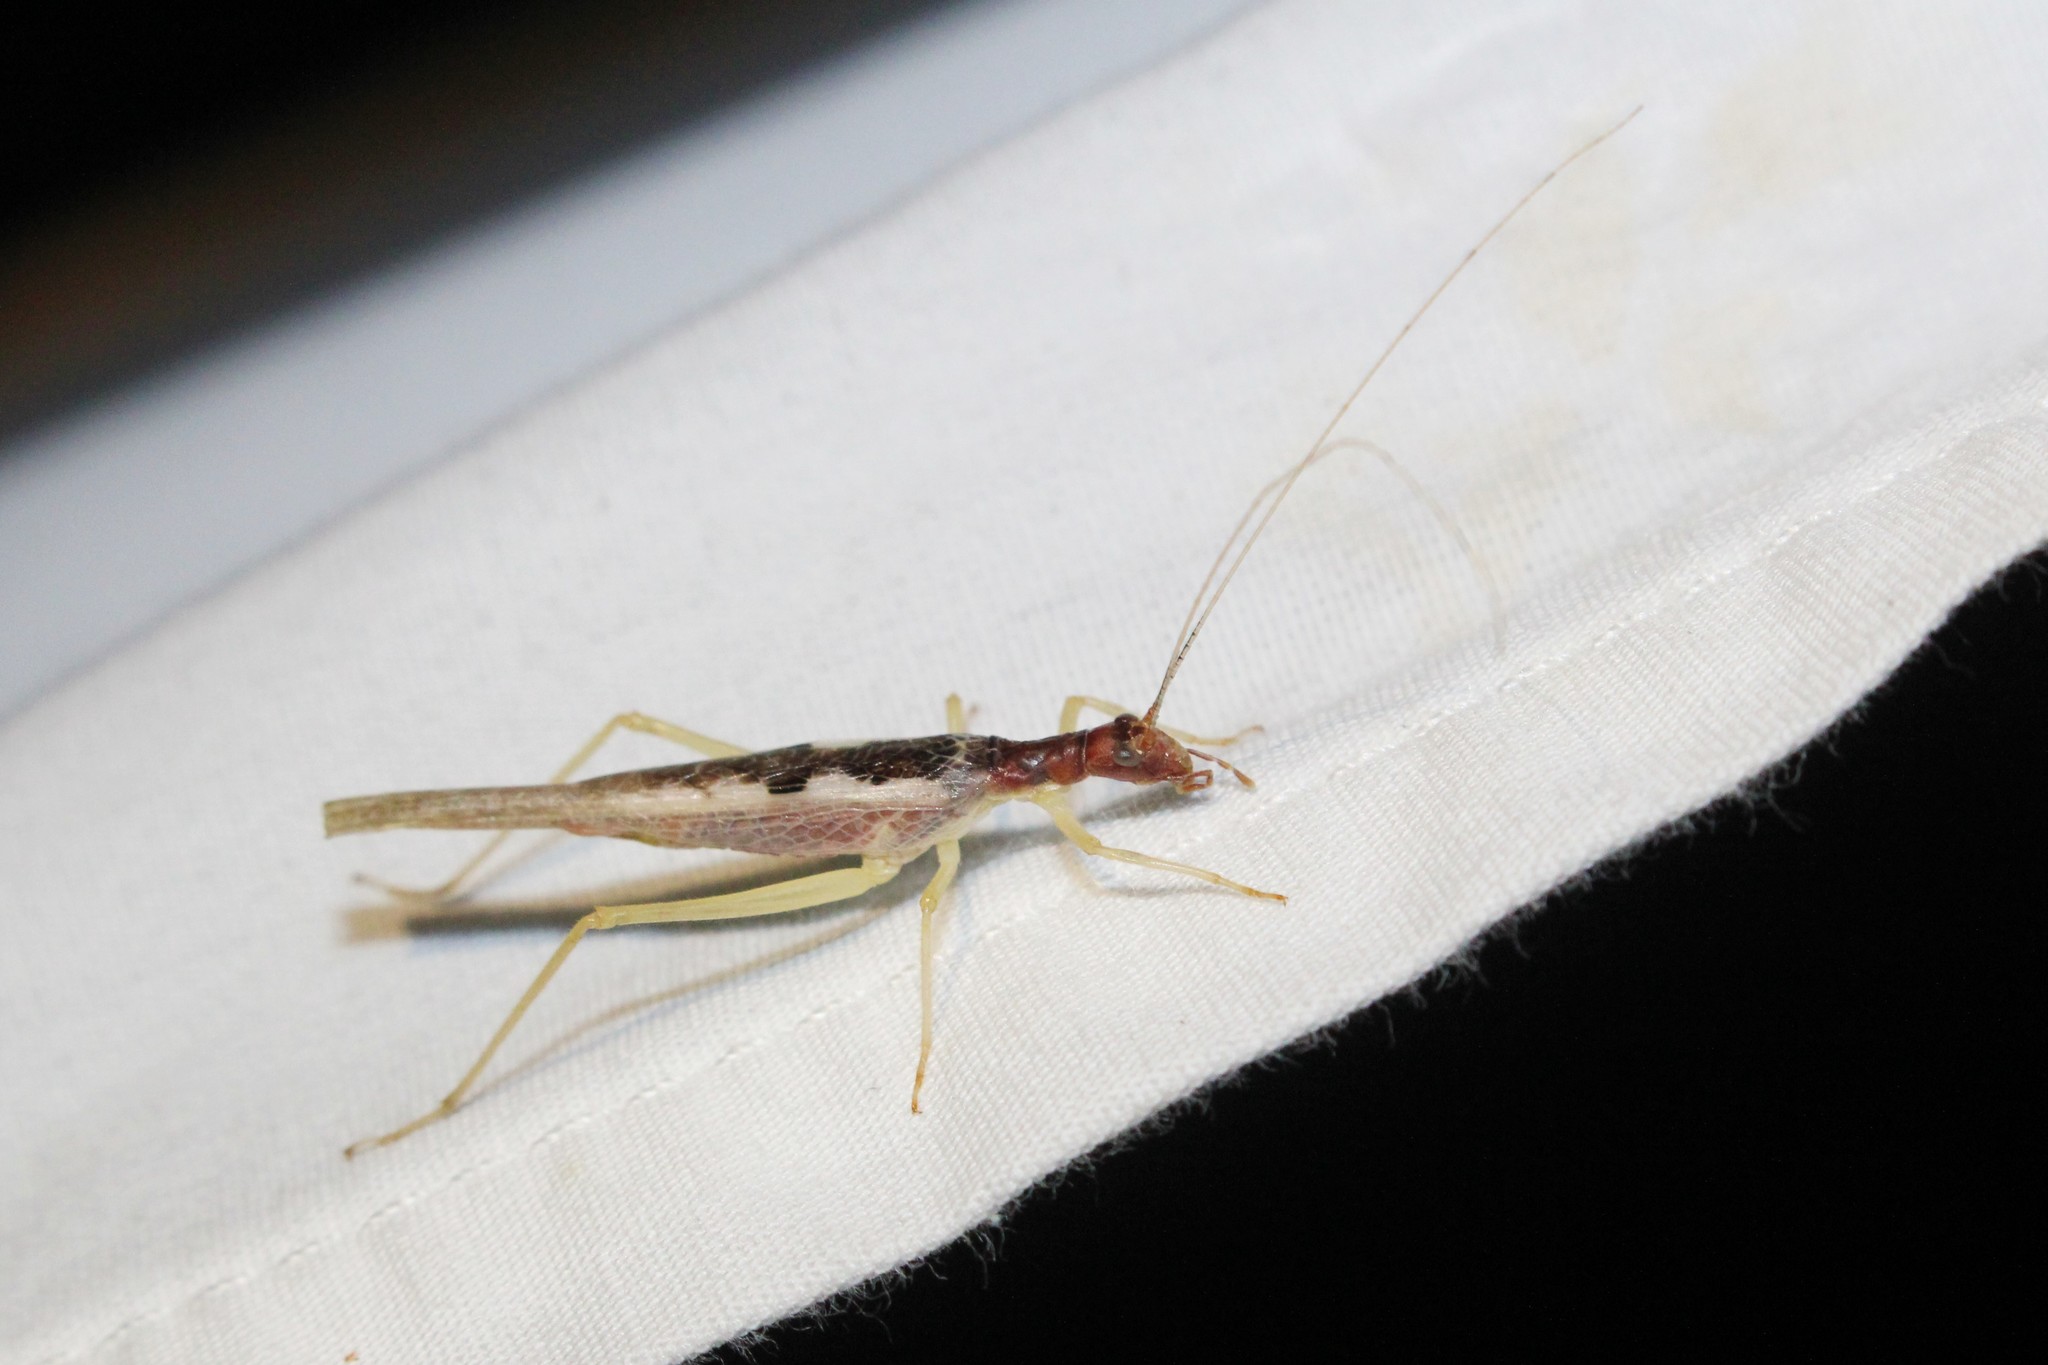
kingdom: Animalia
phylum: Arthropoda
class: Insecta
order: Orthoptera
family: Gryllidae
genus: Neoxabea
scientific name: Neoxabea bipunctata
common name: Two-spotted tree cricket
